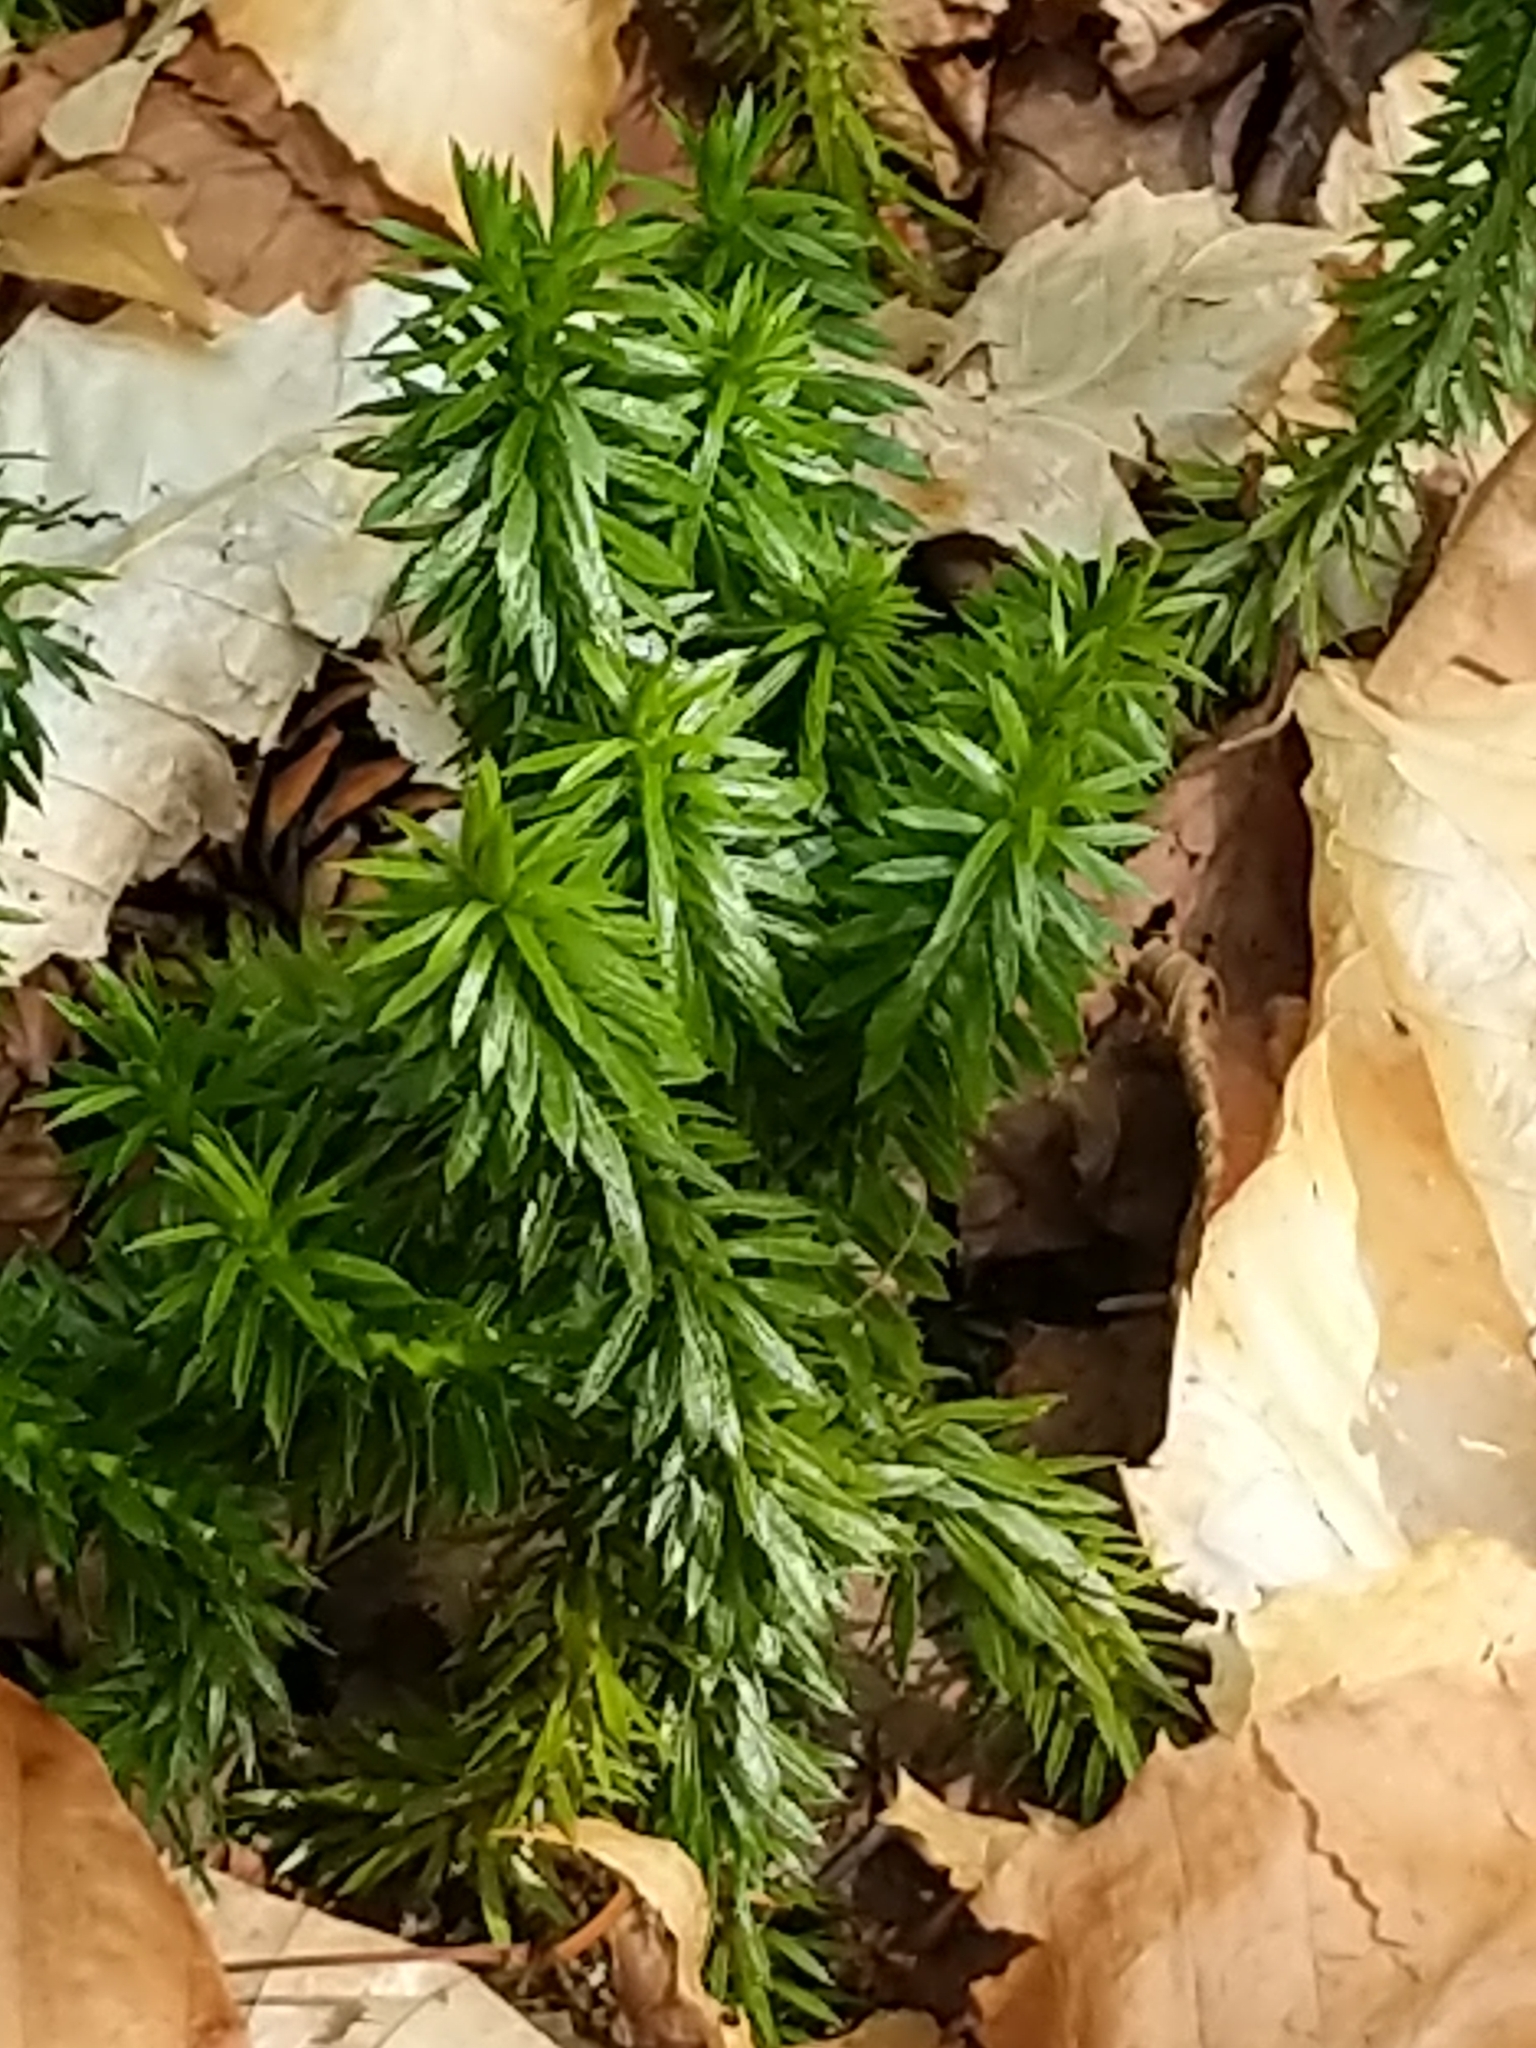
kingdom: Plantae
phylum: Tracheophyta
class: Lycopodiopsida
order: Lycopodiales
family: Lycopodiaceae
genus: Huperzia
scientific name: Huperzia lucidula
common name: Shining clubmoss
